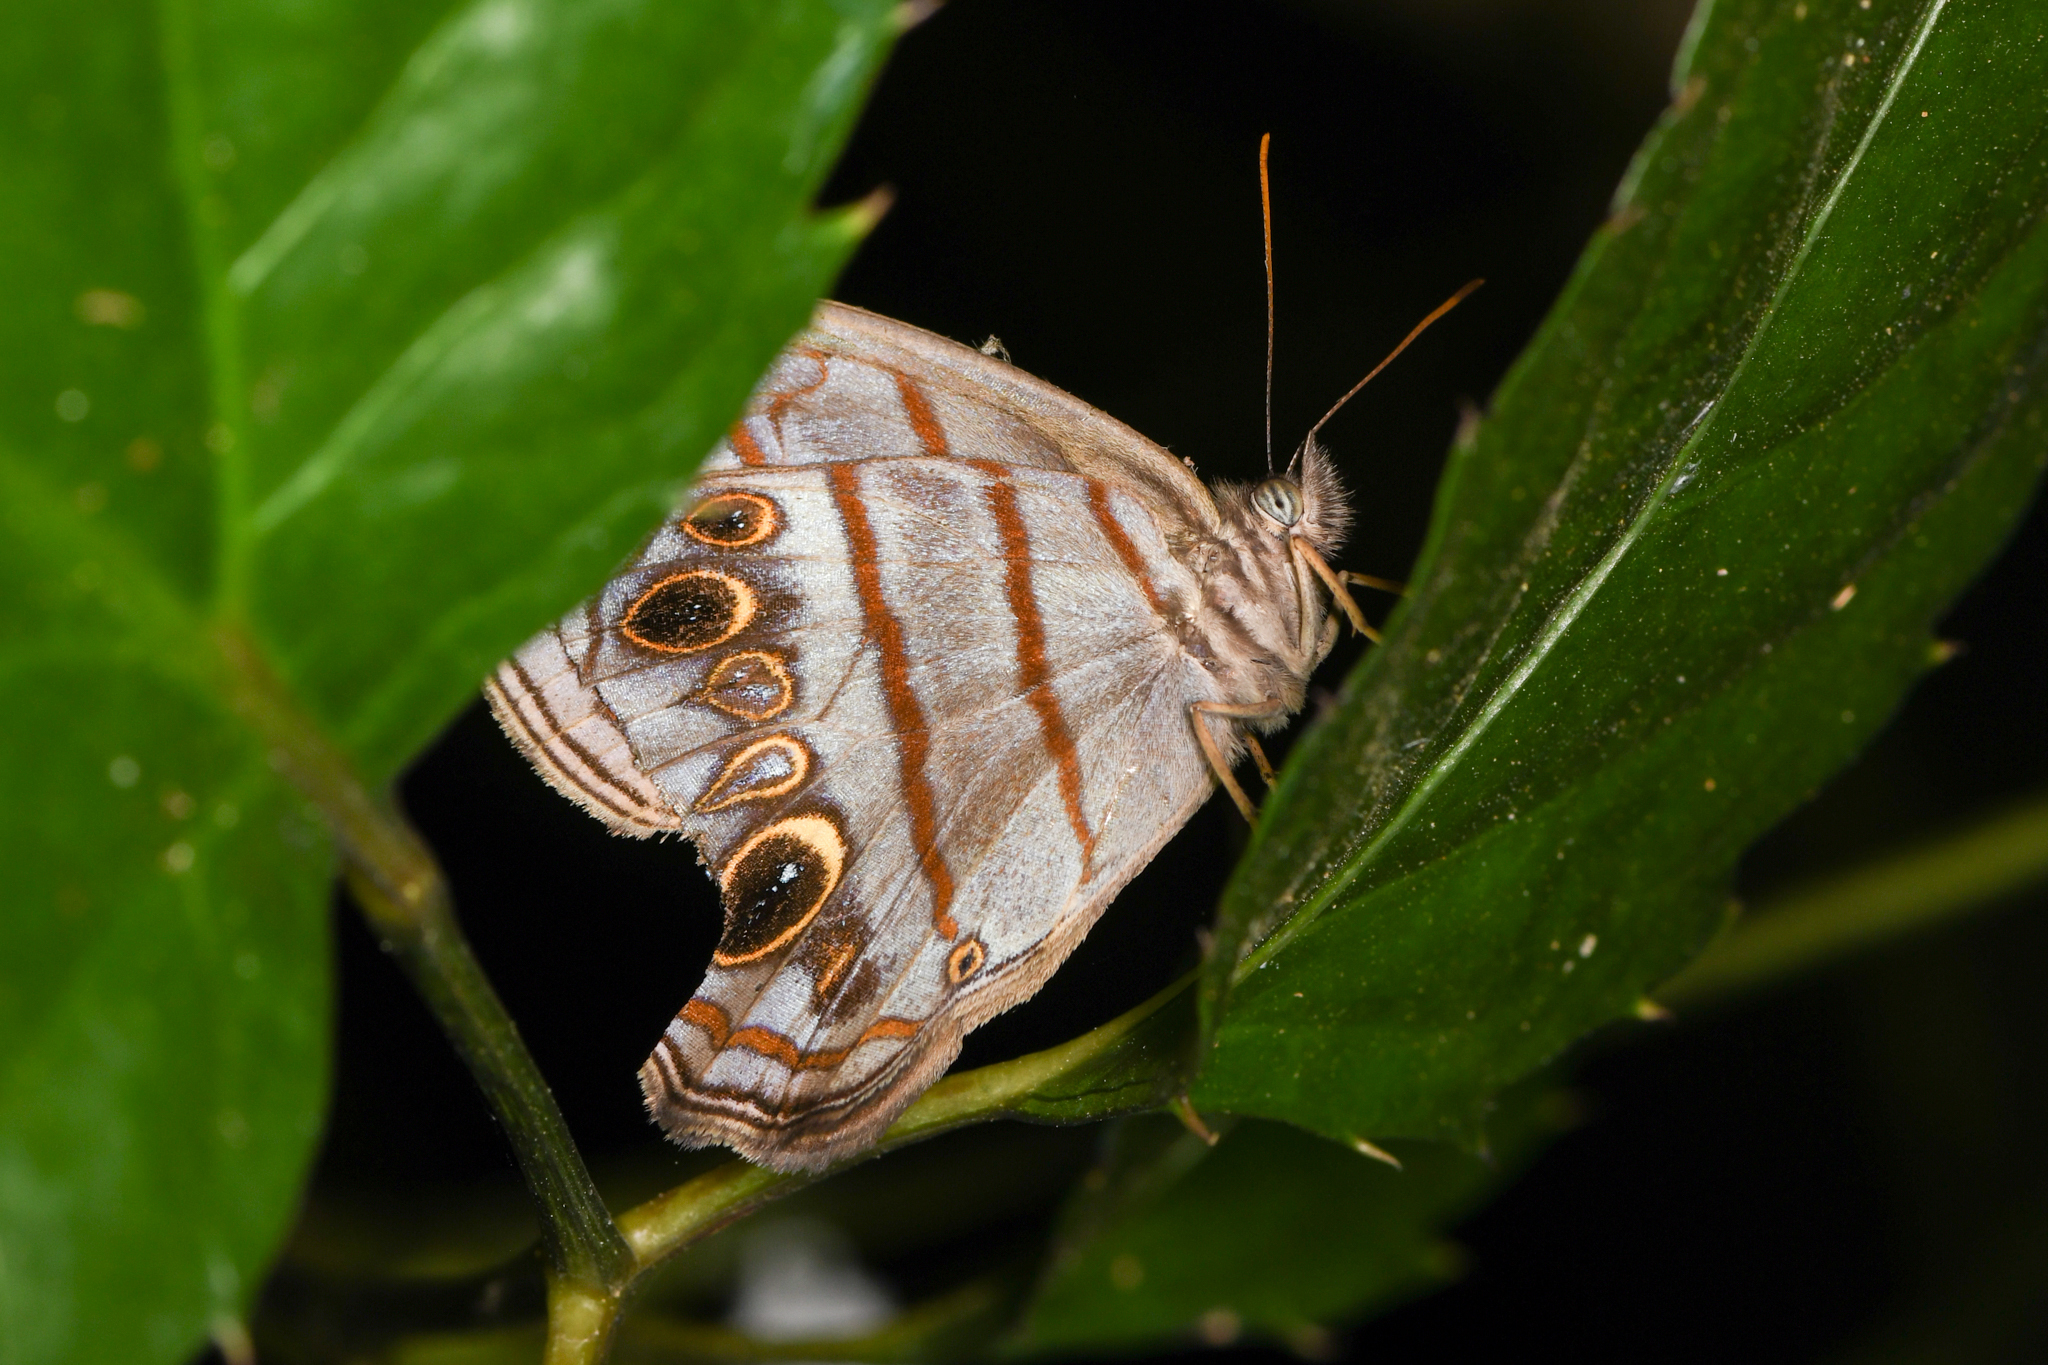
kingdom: Animalia
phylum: Arthropoda
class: Insecta
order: Lepidoptera
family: Nymphalidae
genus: Magneuptychia
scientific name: Magneuptychia libye
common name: Blue-gray satyr
